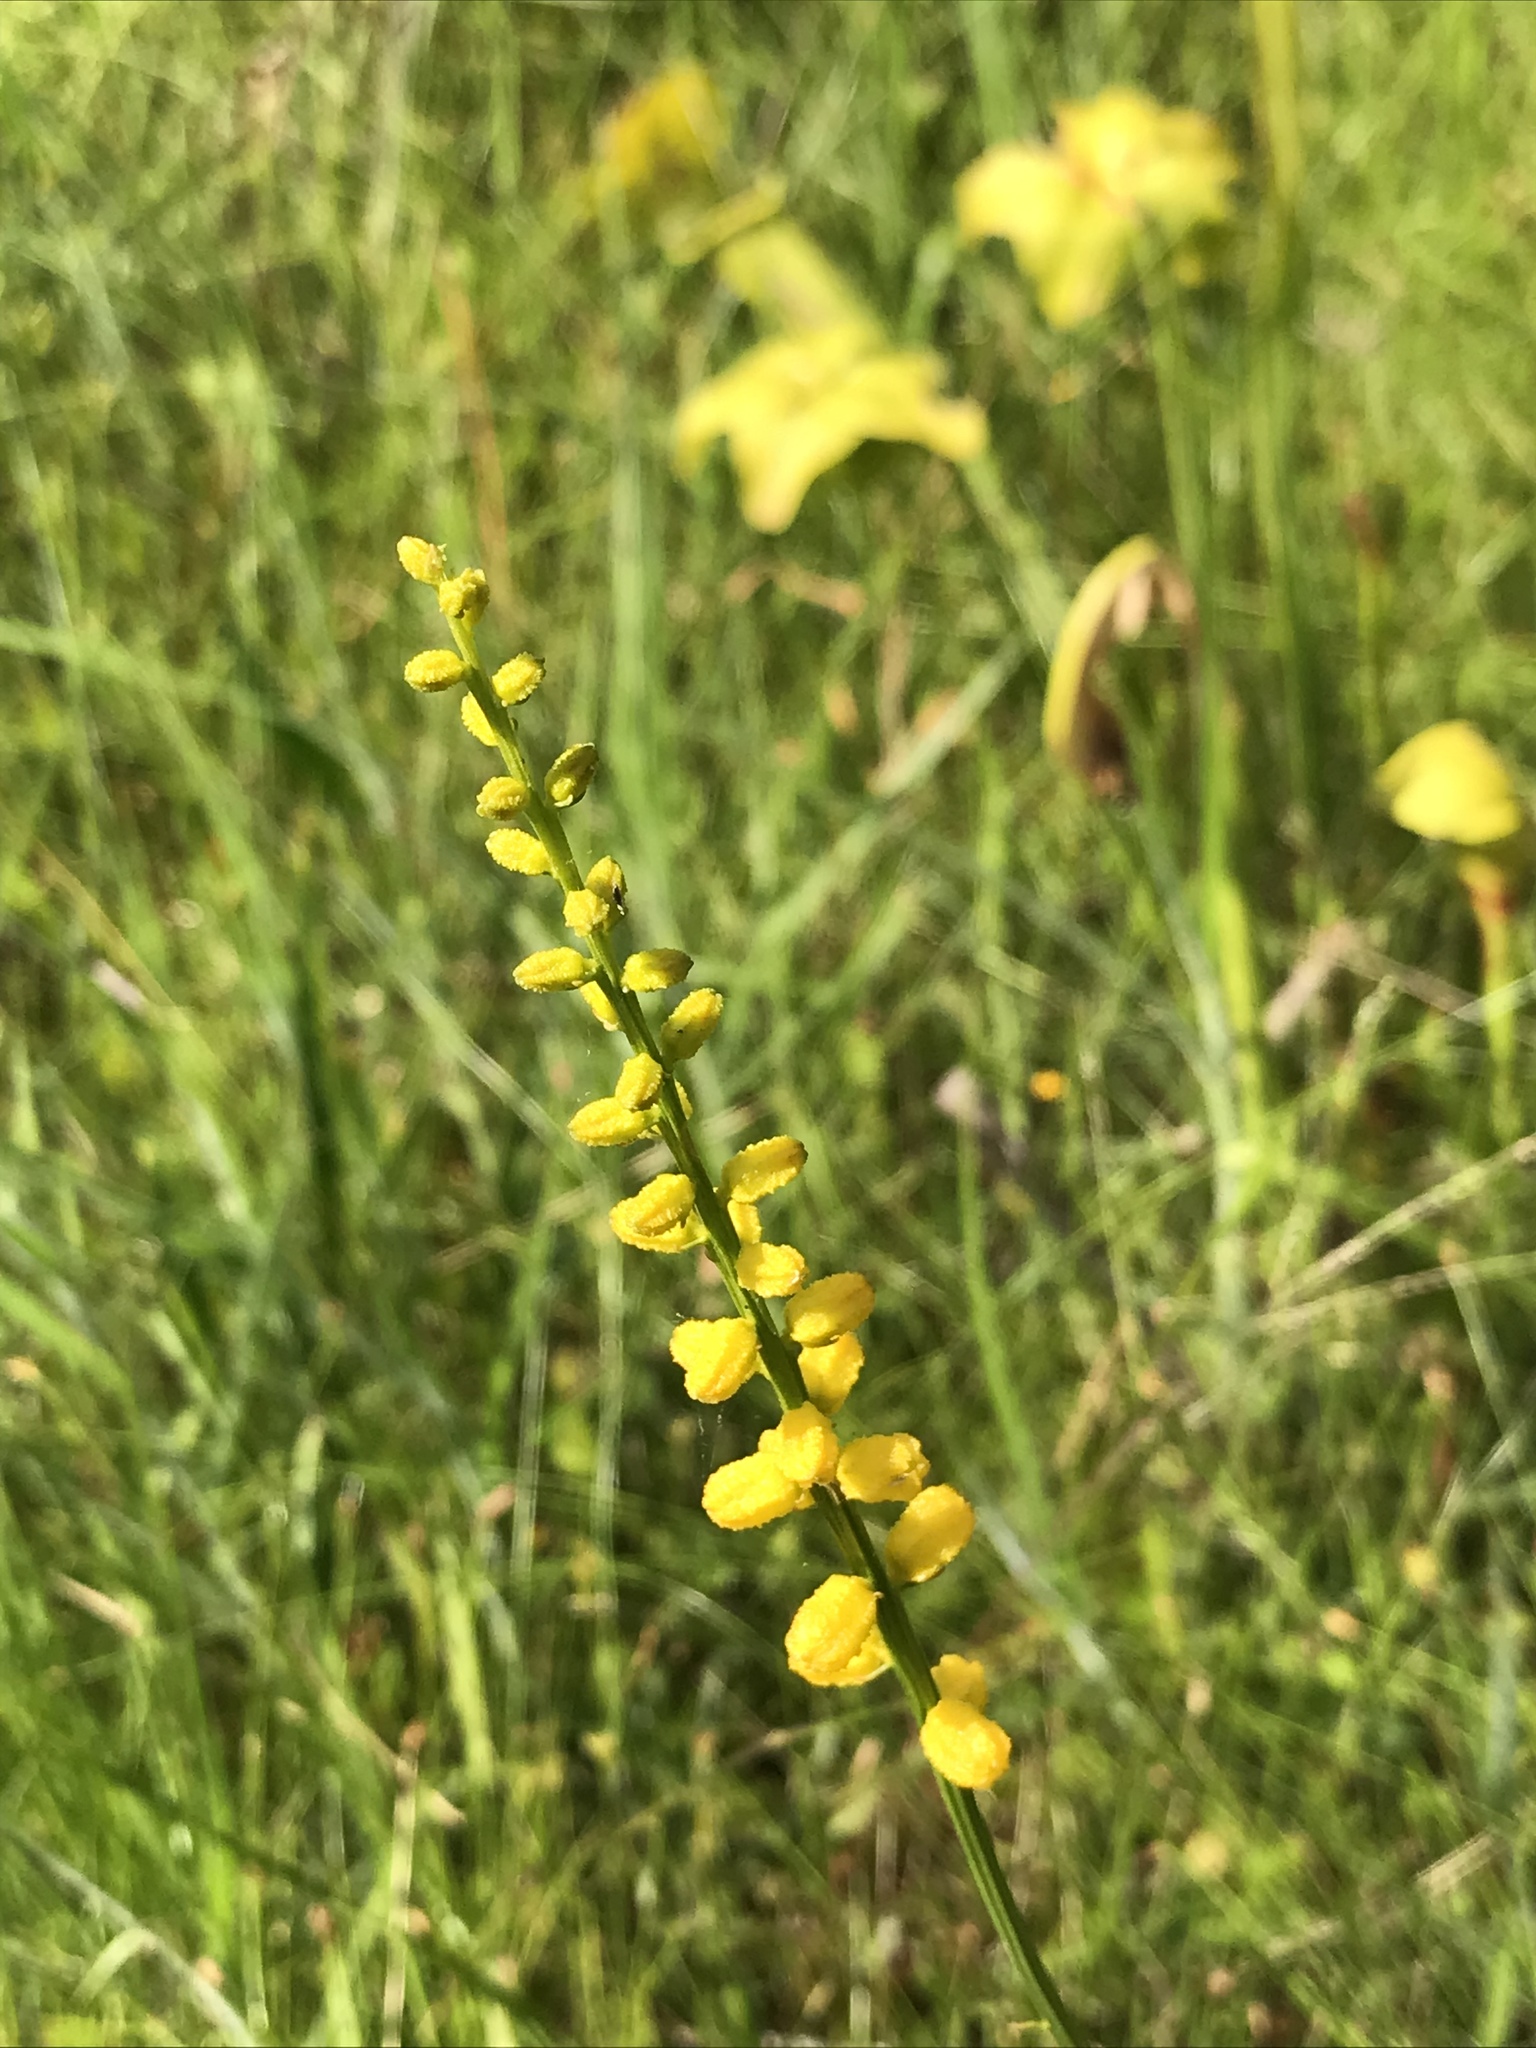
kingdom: Plantae
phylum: Tracheophyta
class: Liliopsida
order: Dioscoreales
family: Nartheciaceae
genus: Aletris
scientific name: Aletris aurea
